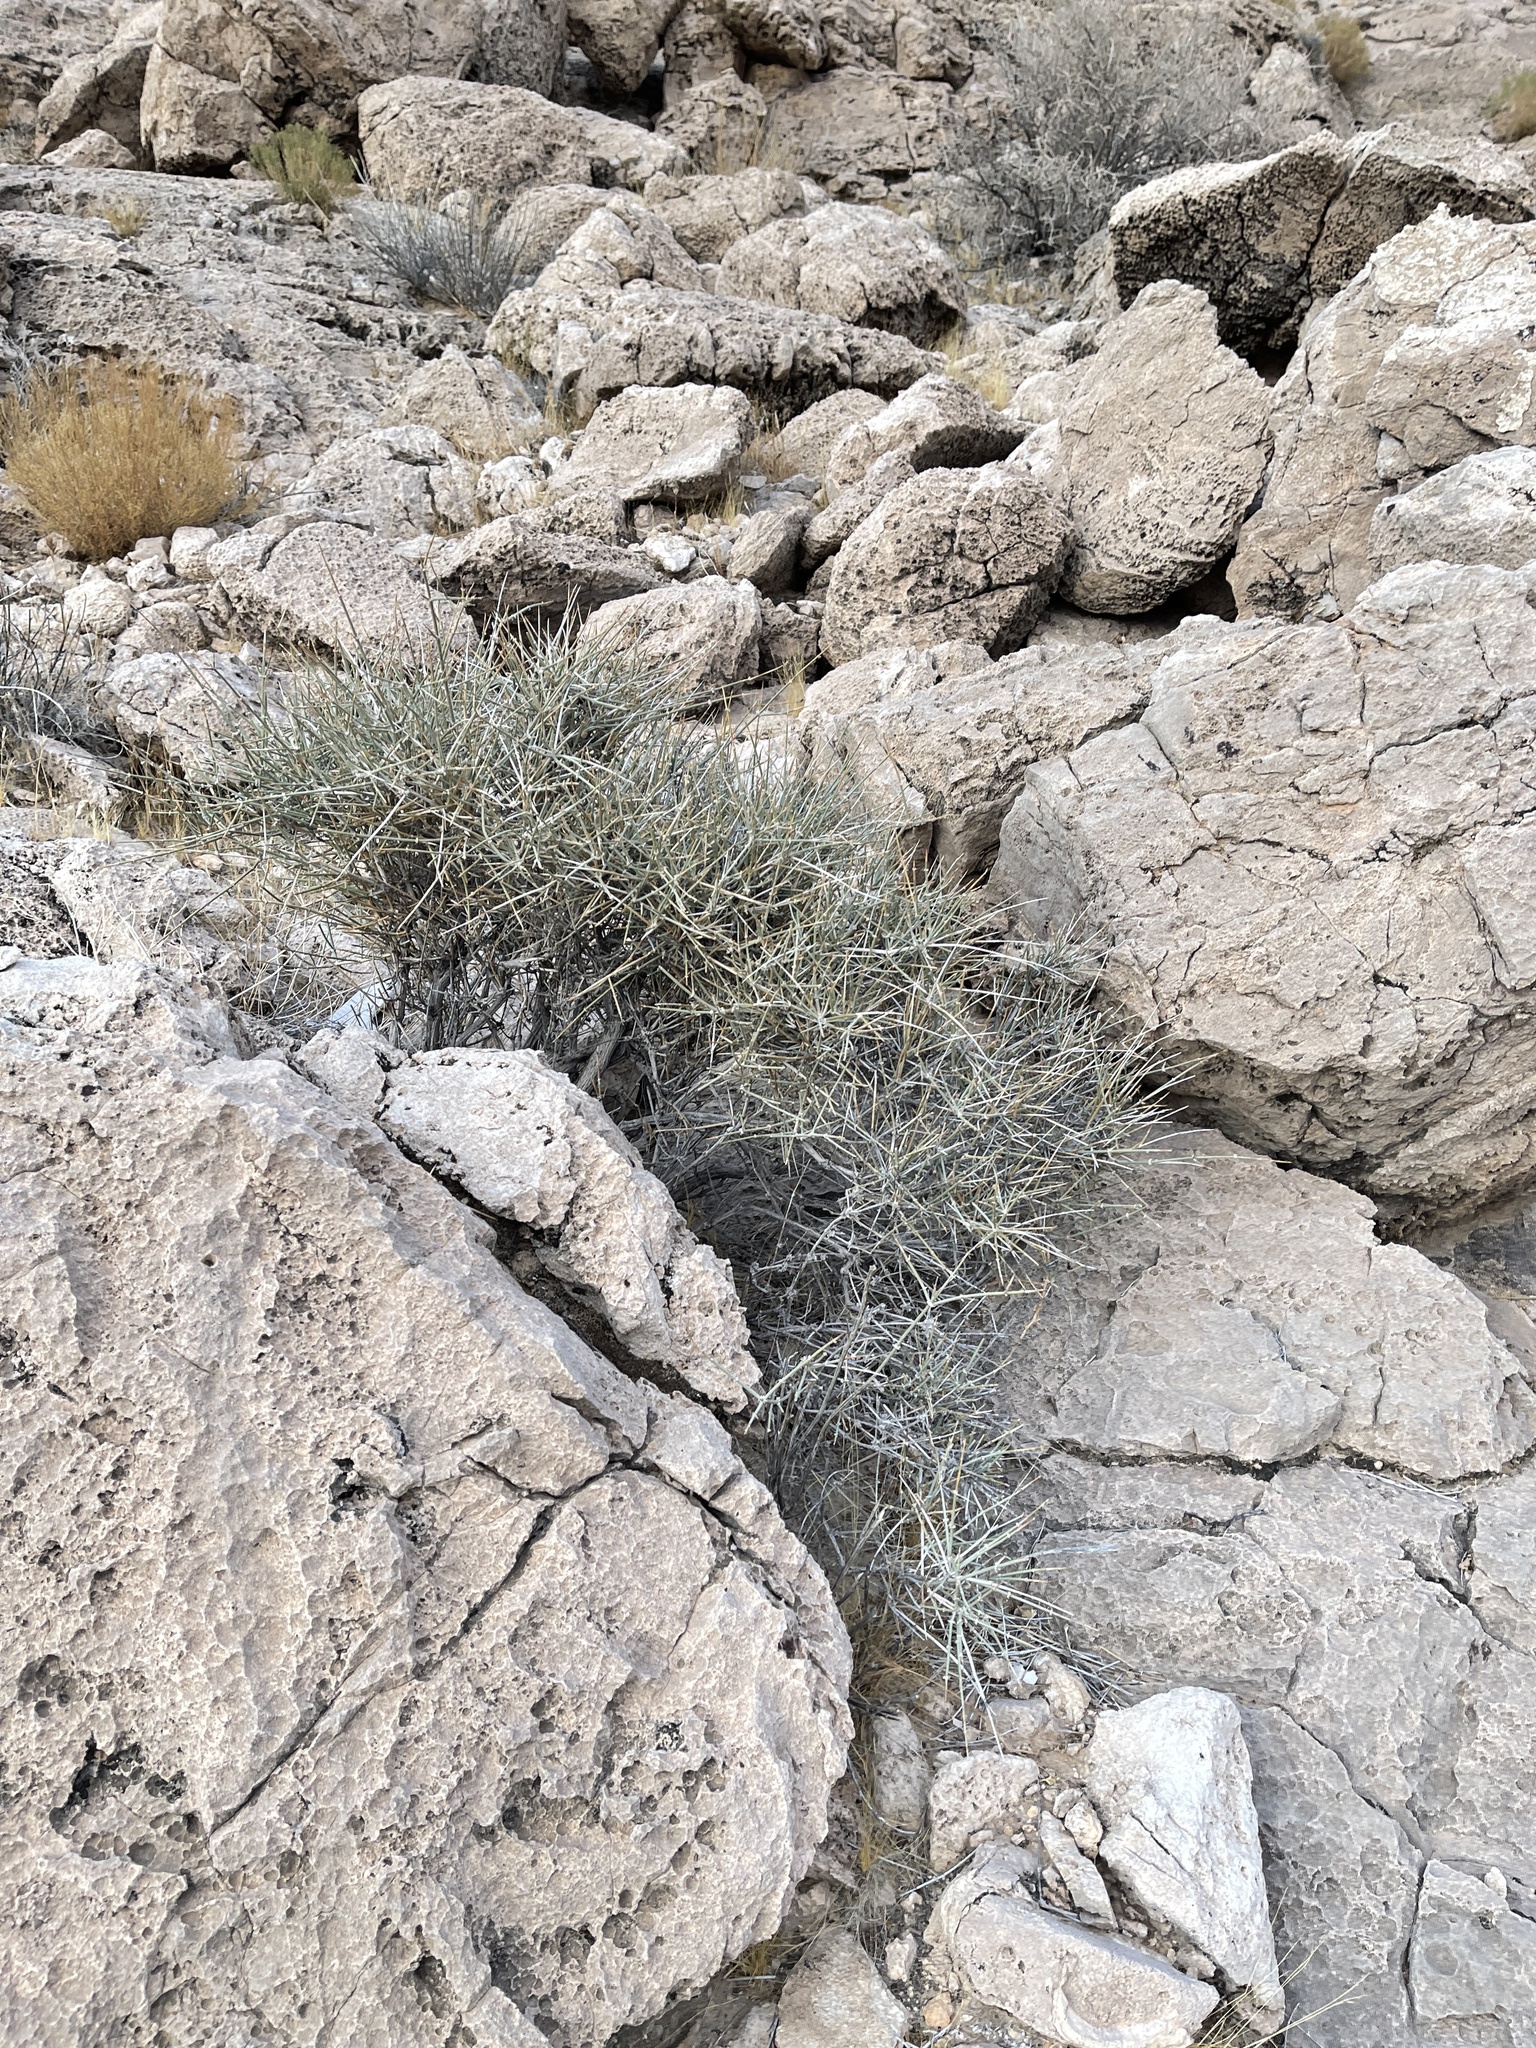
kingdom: Plantae
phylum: Tracheophyta
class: Gnetopsida
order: Ephedrales
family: Ephedraceae
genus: Ephedra
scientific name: Ephedra nevadensis
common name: Gray ephedra
